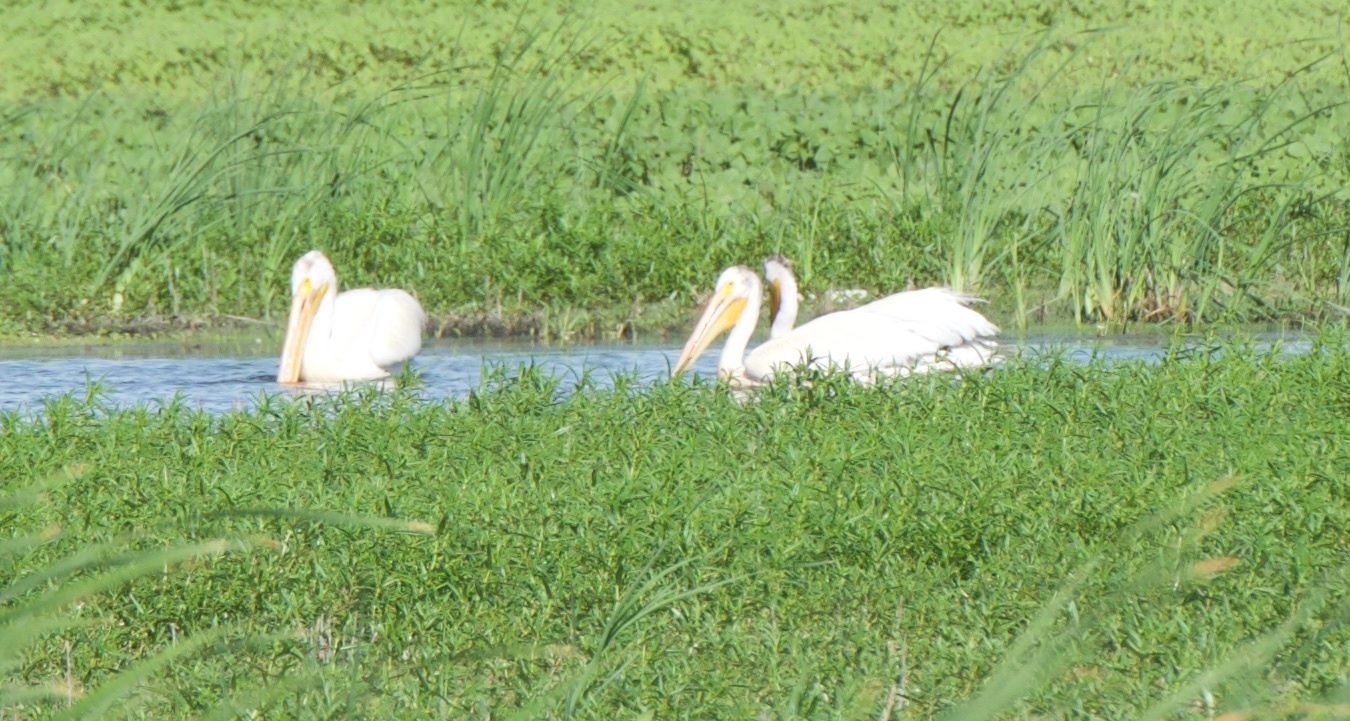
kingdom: Animalia
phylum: Chordata
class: Aves
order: Pelecaniformes
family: Pelecanidae
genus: Pelecanus
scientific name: Pelecanus erythrorhynchos
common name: American white pelican
